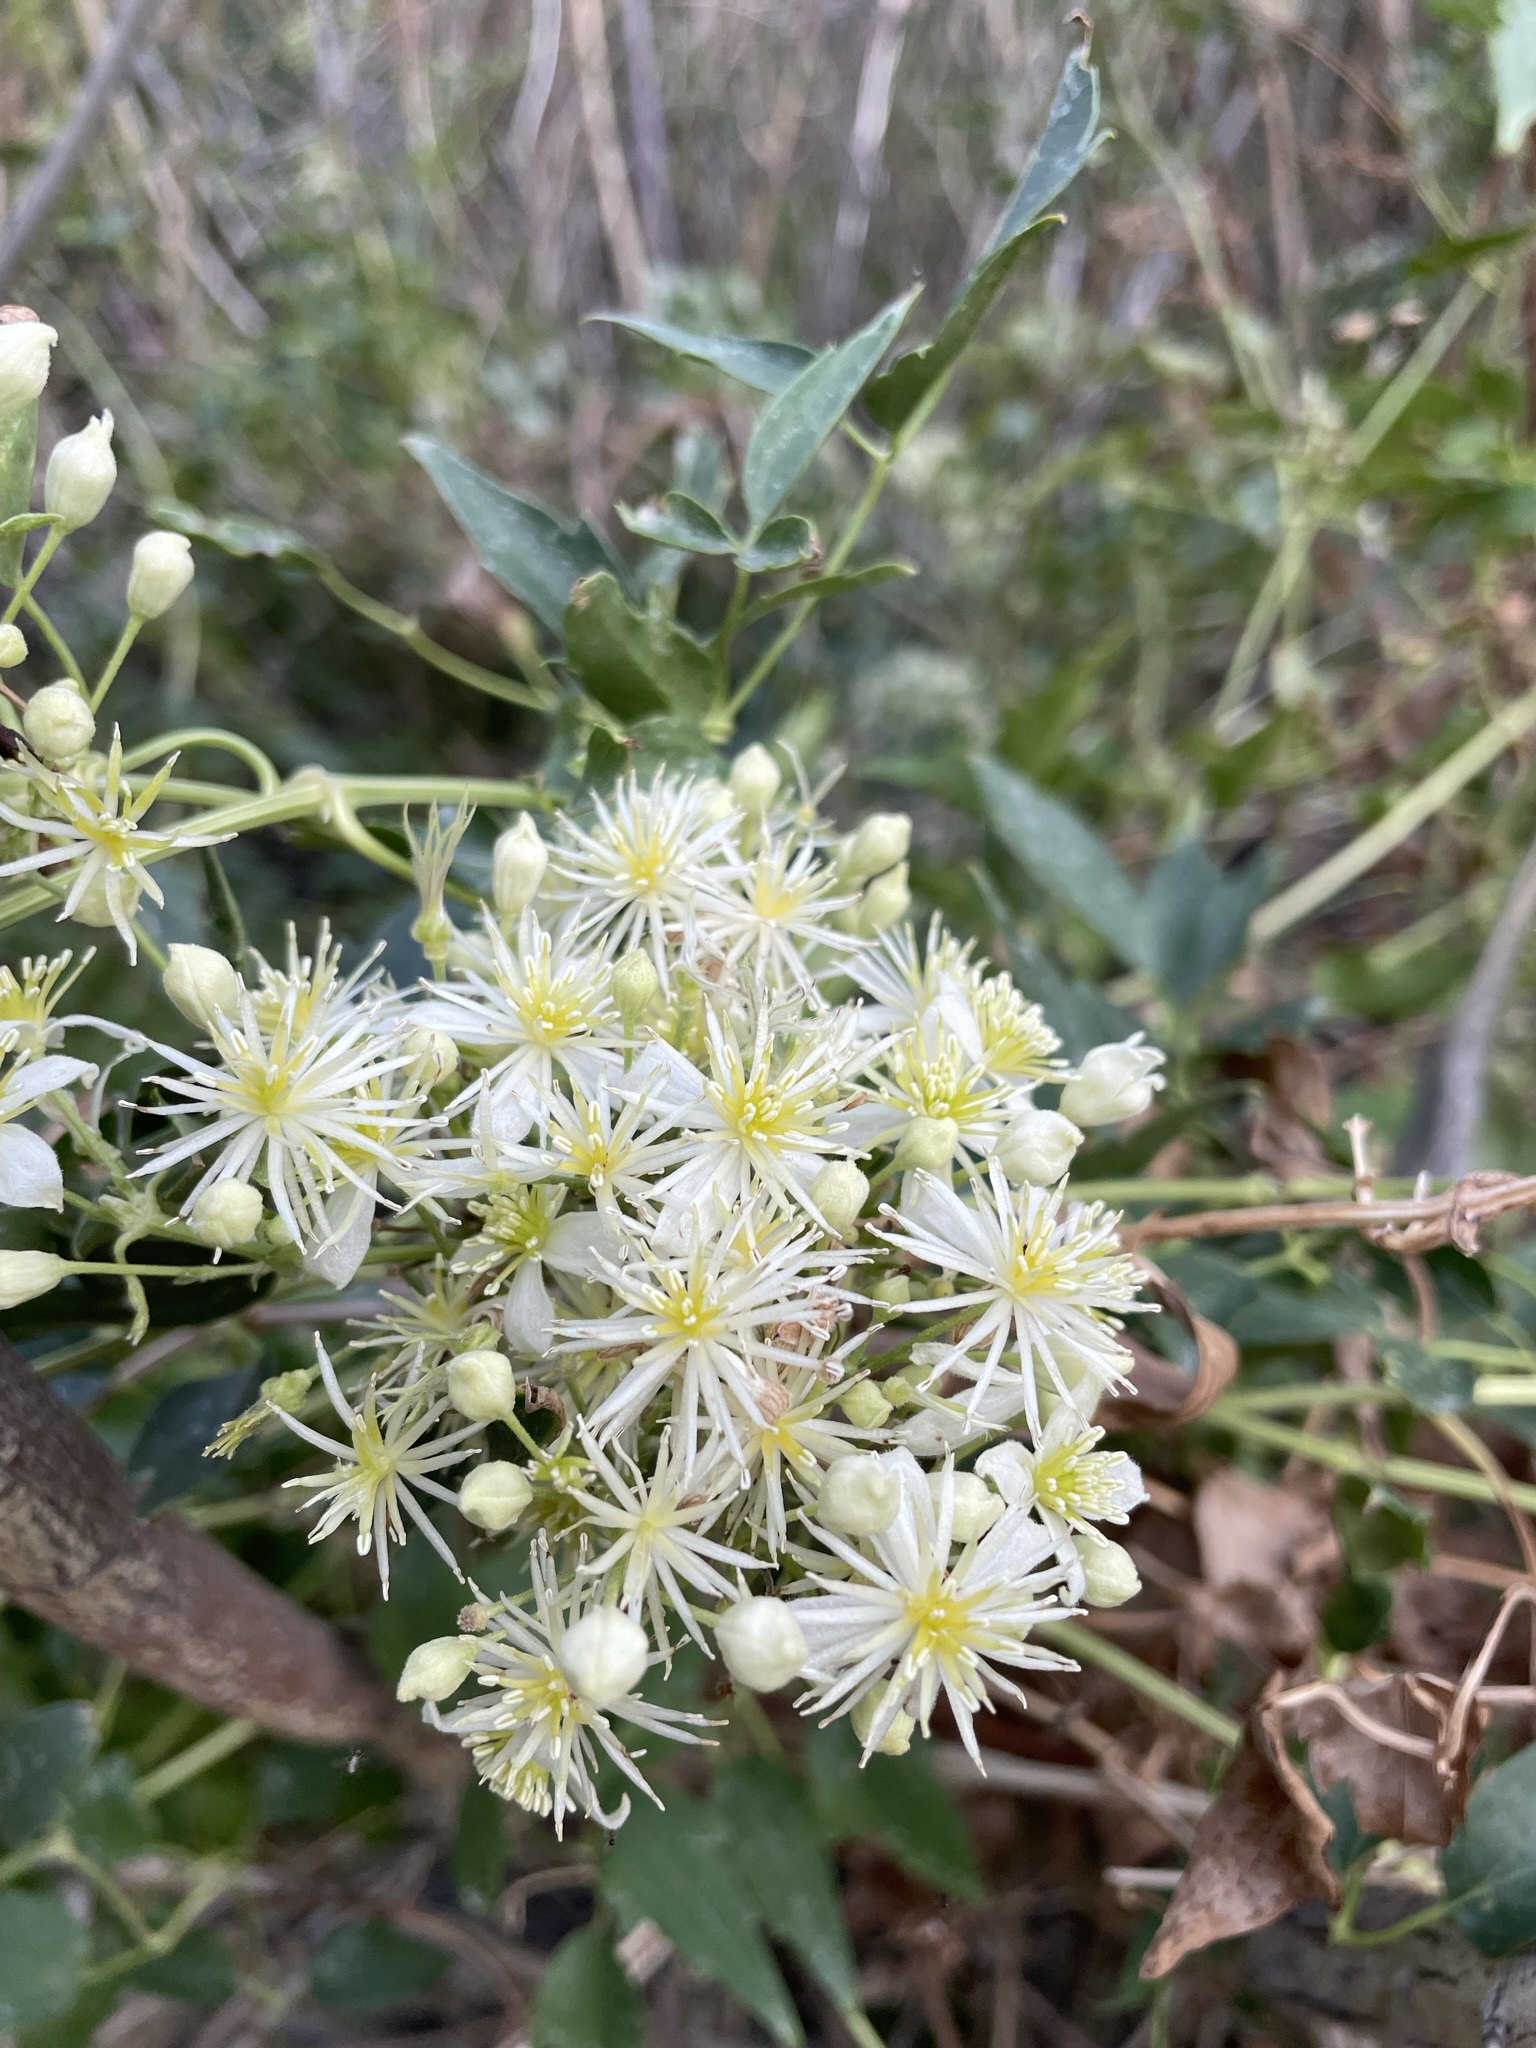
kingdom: Plantae
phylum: Tracheophyta
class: Magnoliopsida
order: Ranunculales
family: Ranunculaceae
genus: Clematis
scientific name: Clematis ligusticifolia
